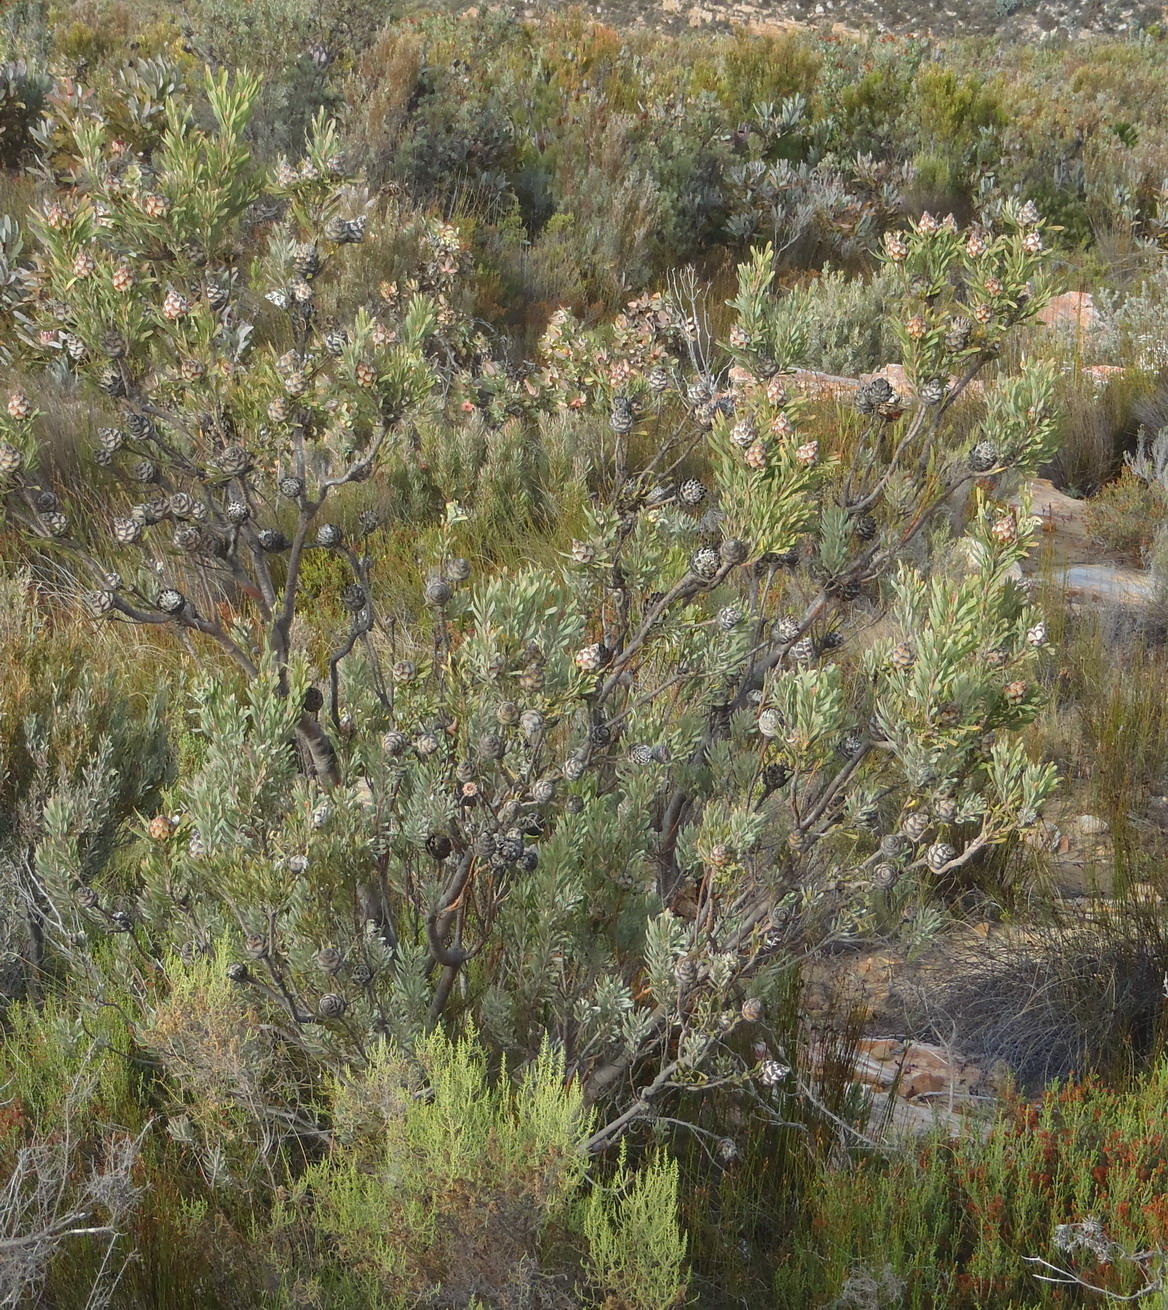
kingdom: Plantae
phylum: Tracheophyta
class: Magnoliopsida
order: Proteales
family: Proteaceae
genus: Leucadendron
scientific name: Leucadendron rubrum
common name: Spinning top
